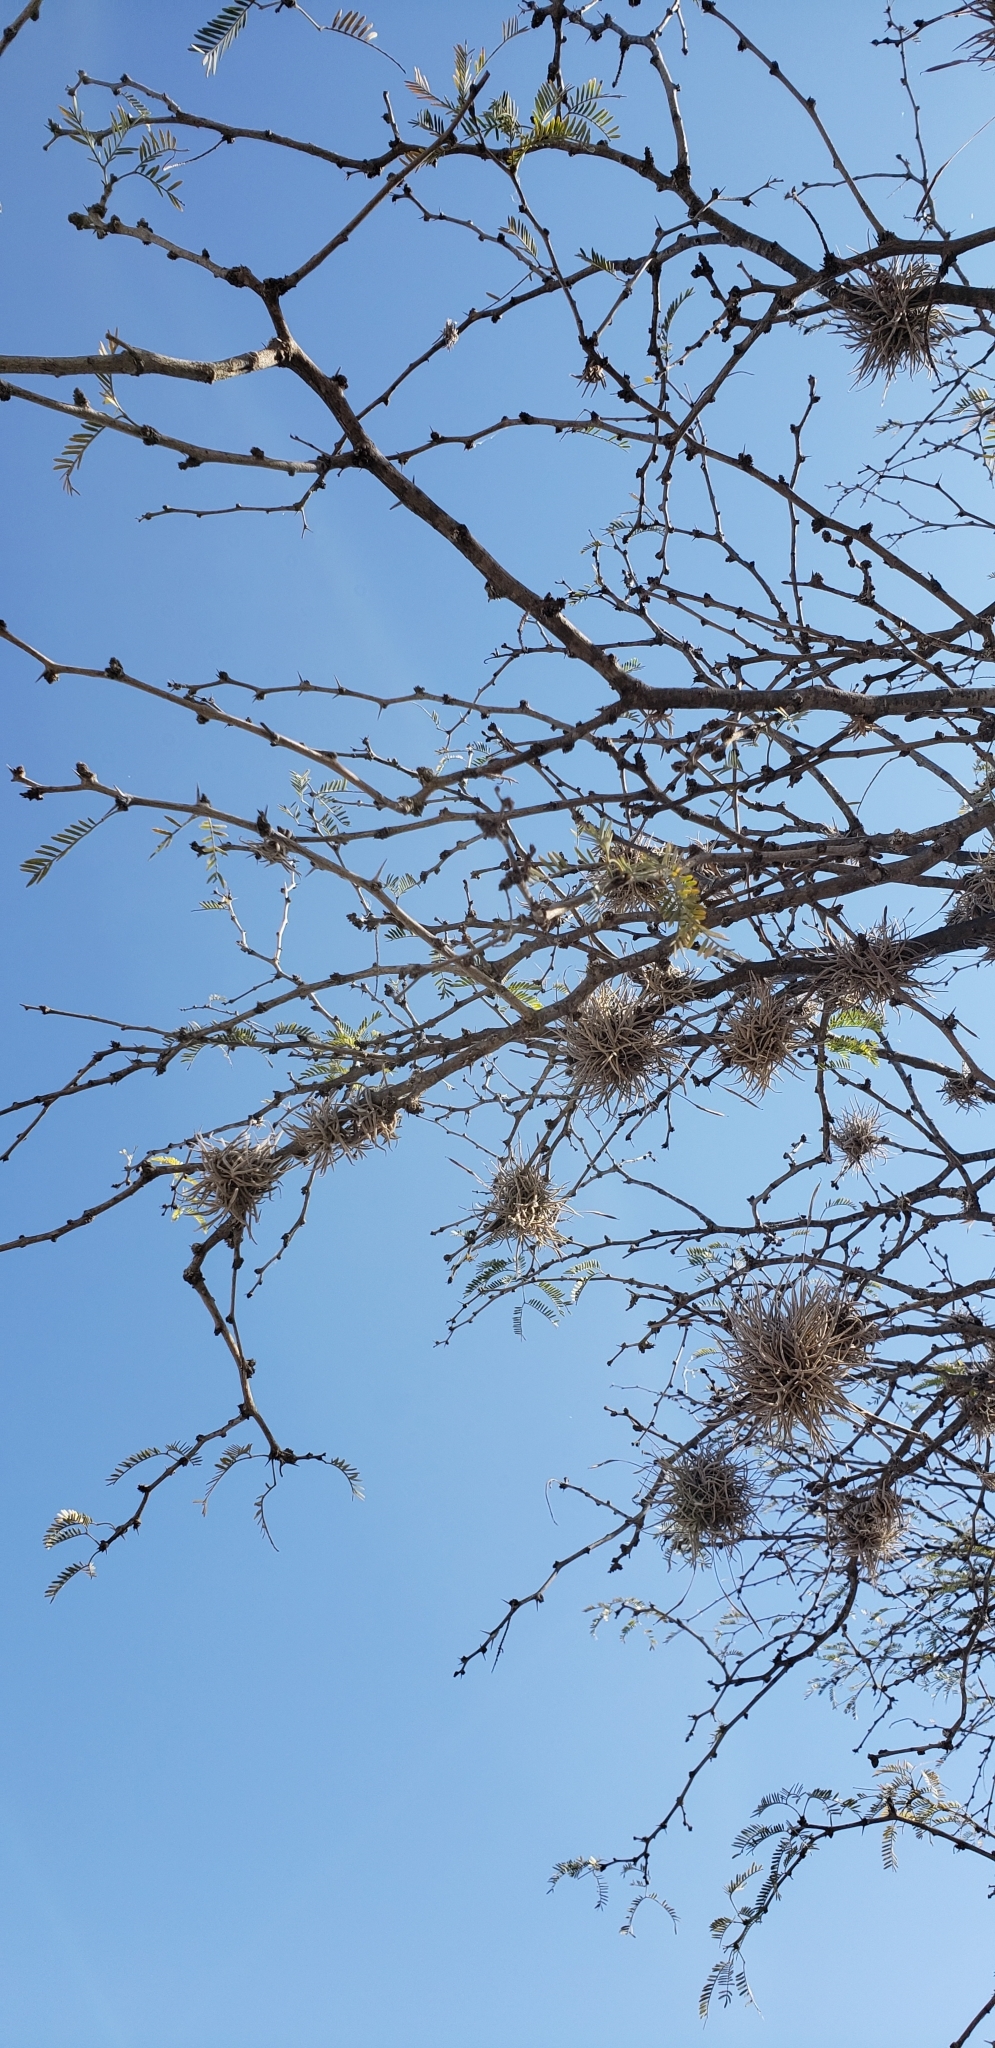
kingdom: Plantae
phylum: Tracheophyta
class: Liliopsida
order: Poales
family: Bromeliaceae
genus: Tillandsia
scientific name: Tillandsia recurvata
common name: Small ballmoss
